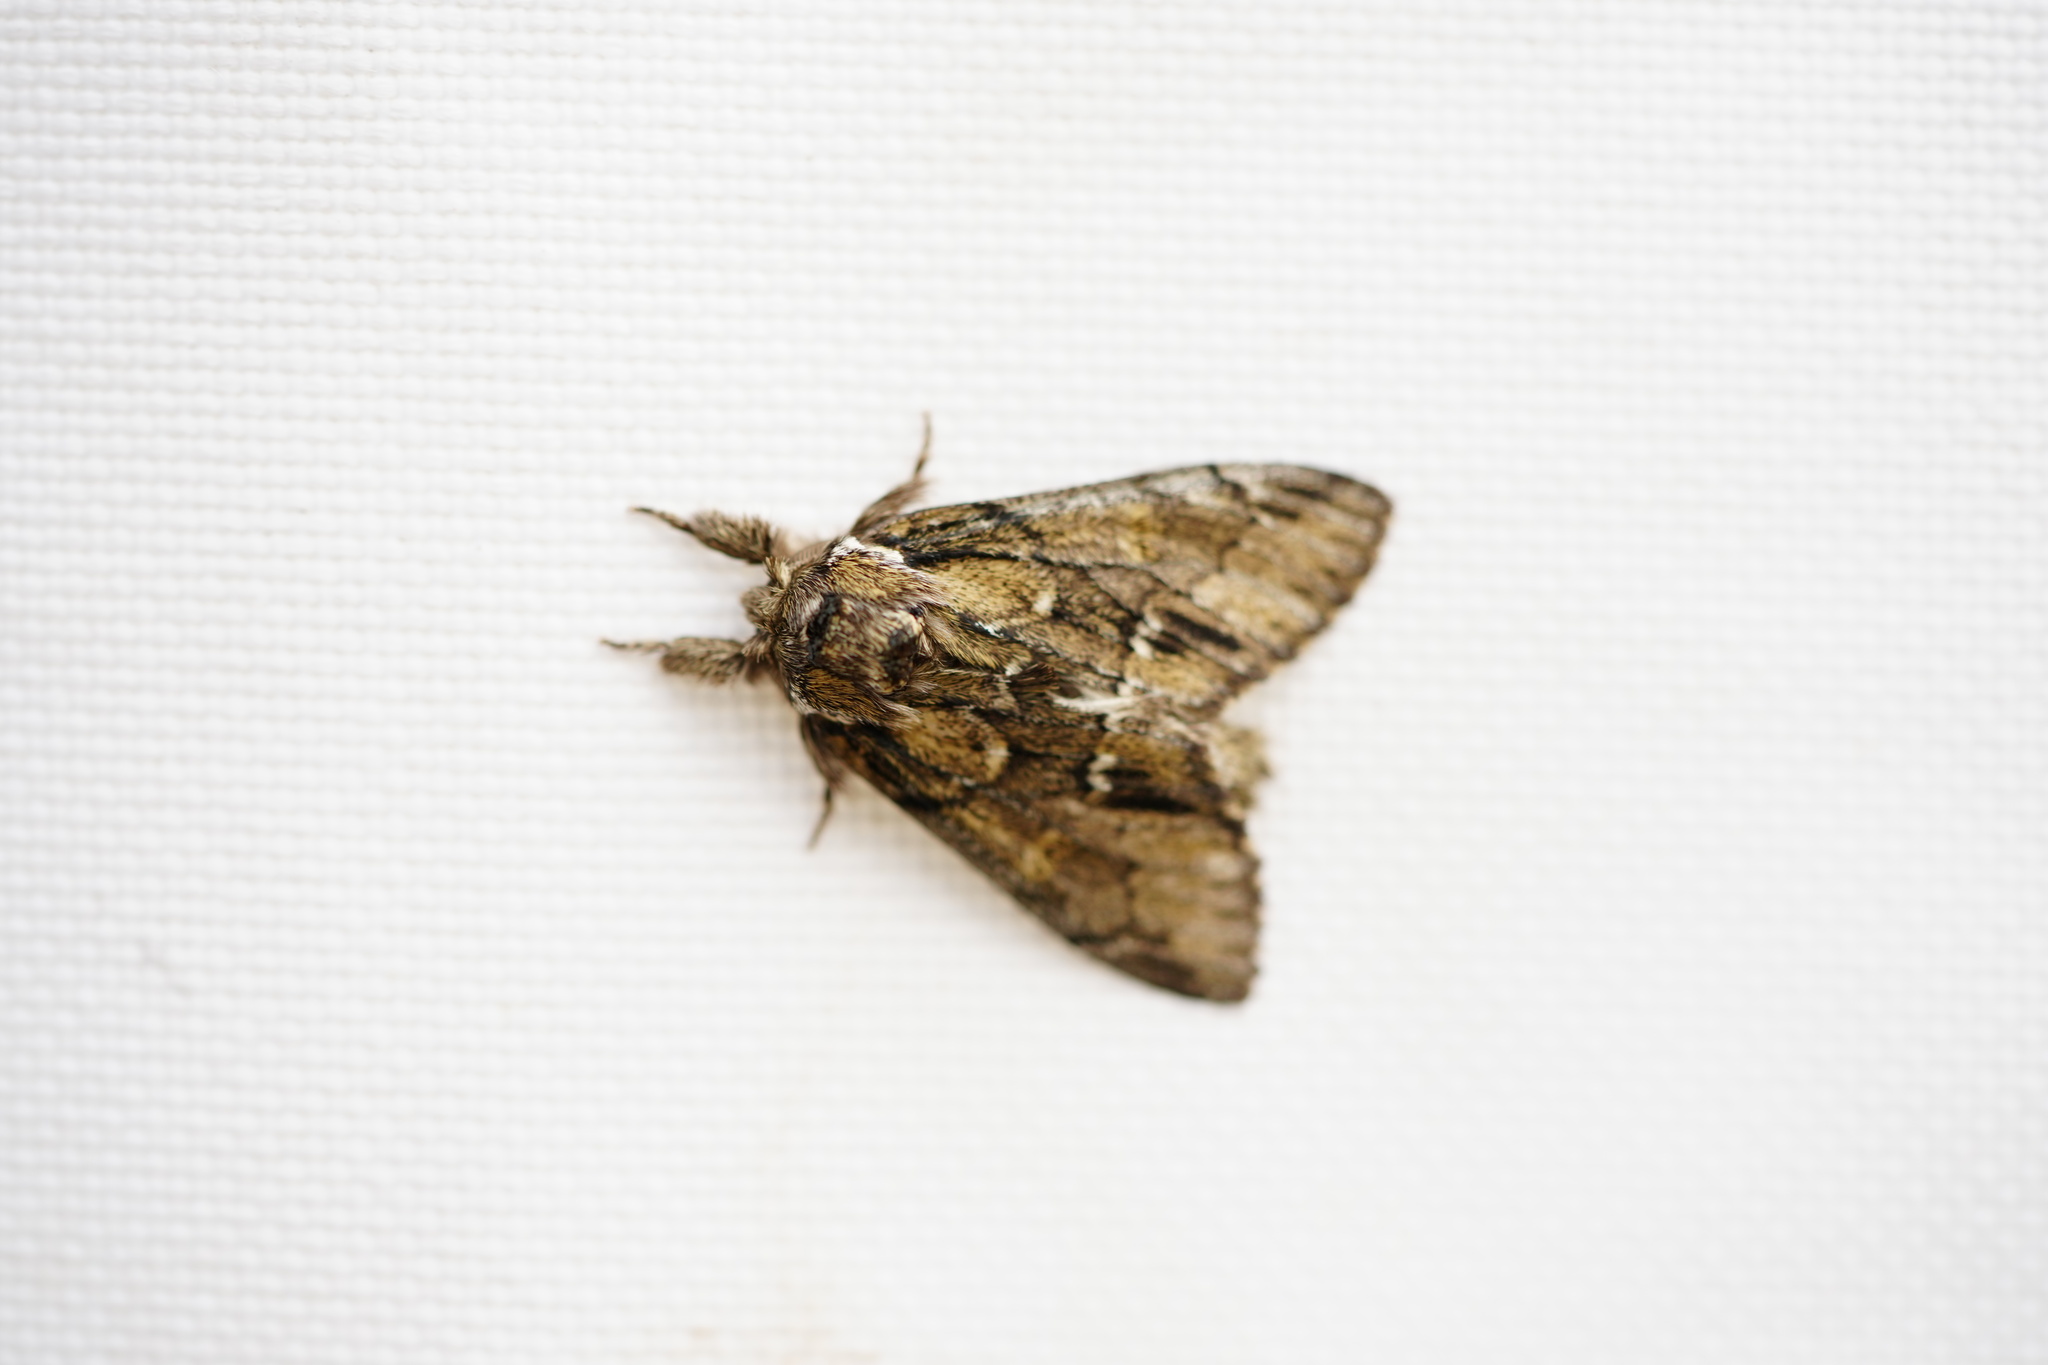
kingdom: Animalia
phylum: Arthropoda
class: Insecta
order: Lepidoptera
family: Notodontidae
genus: Paraeschra
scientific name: Paraeschra georgica
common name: Georgian prominent
